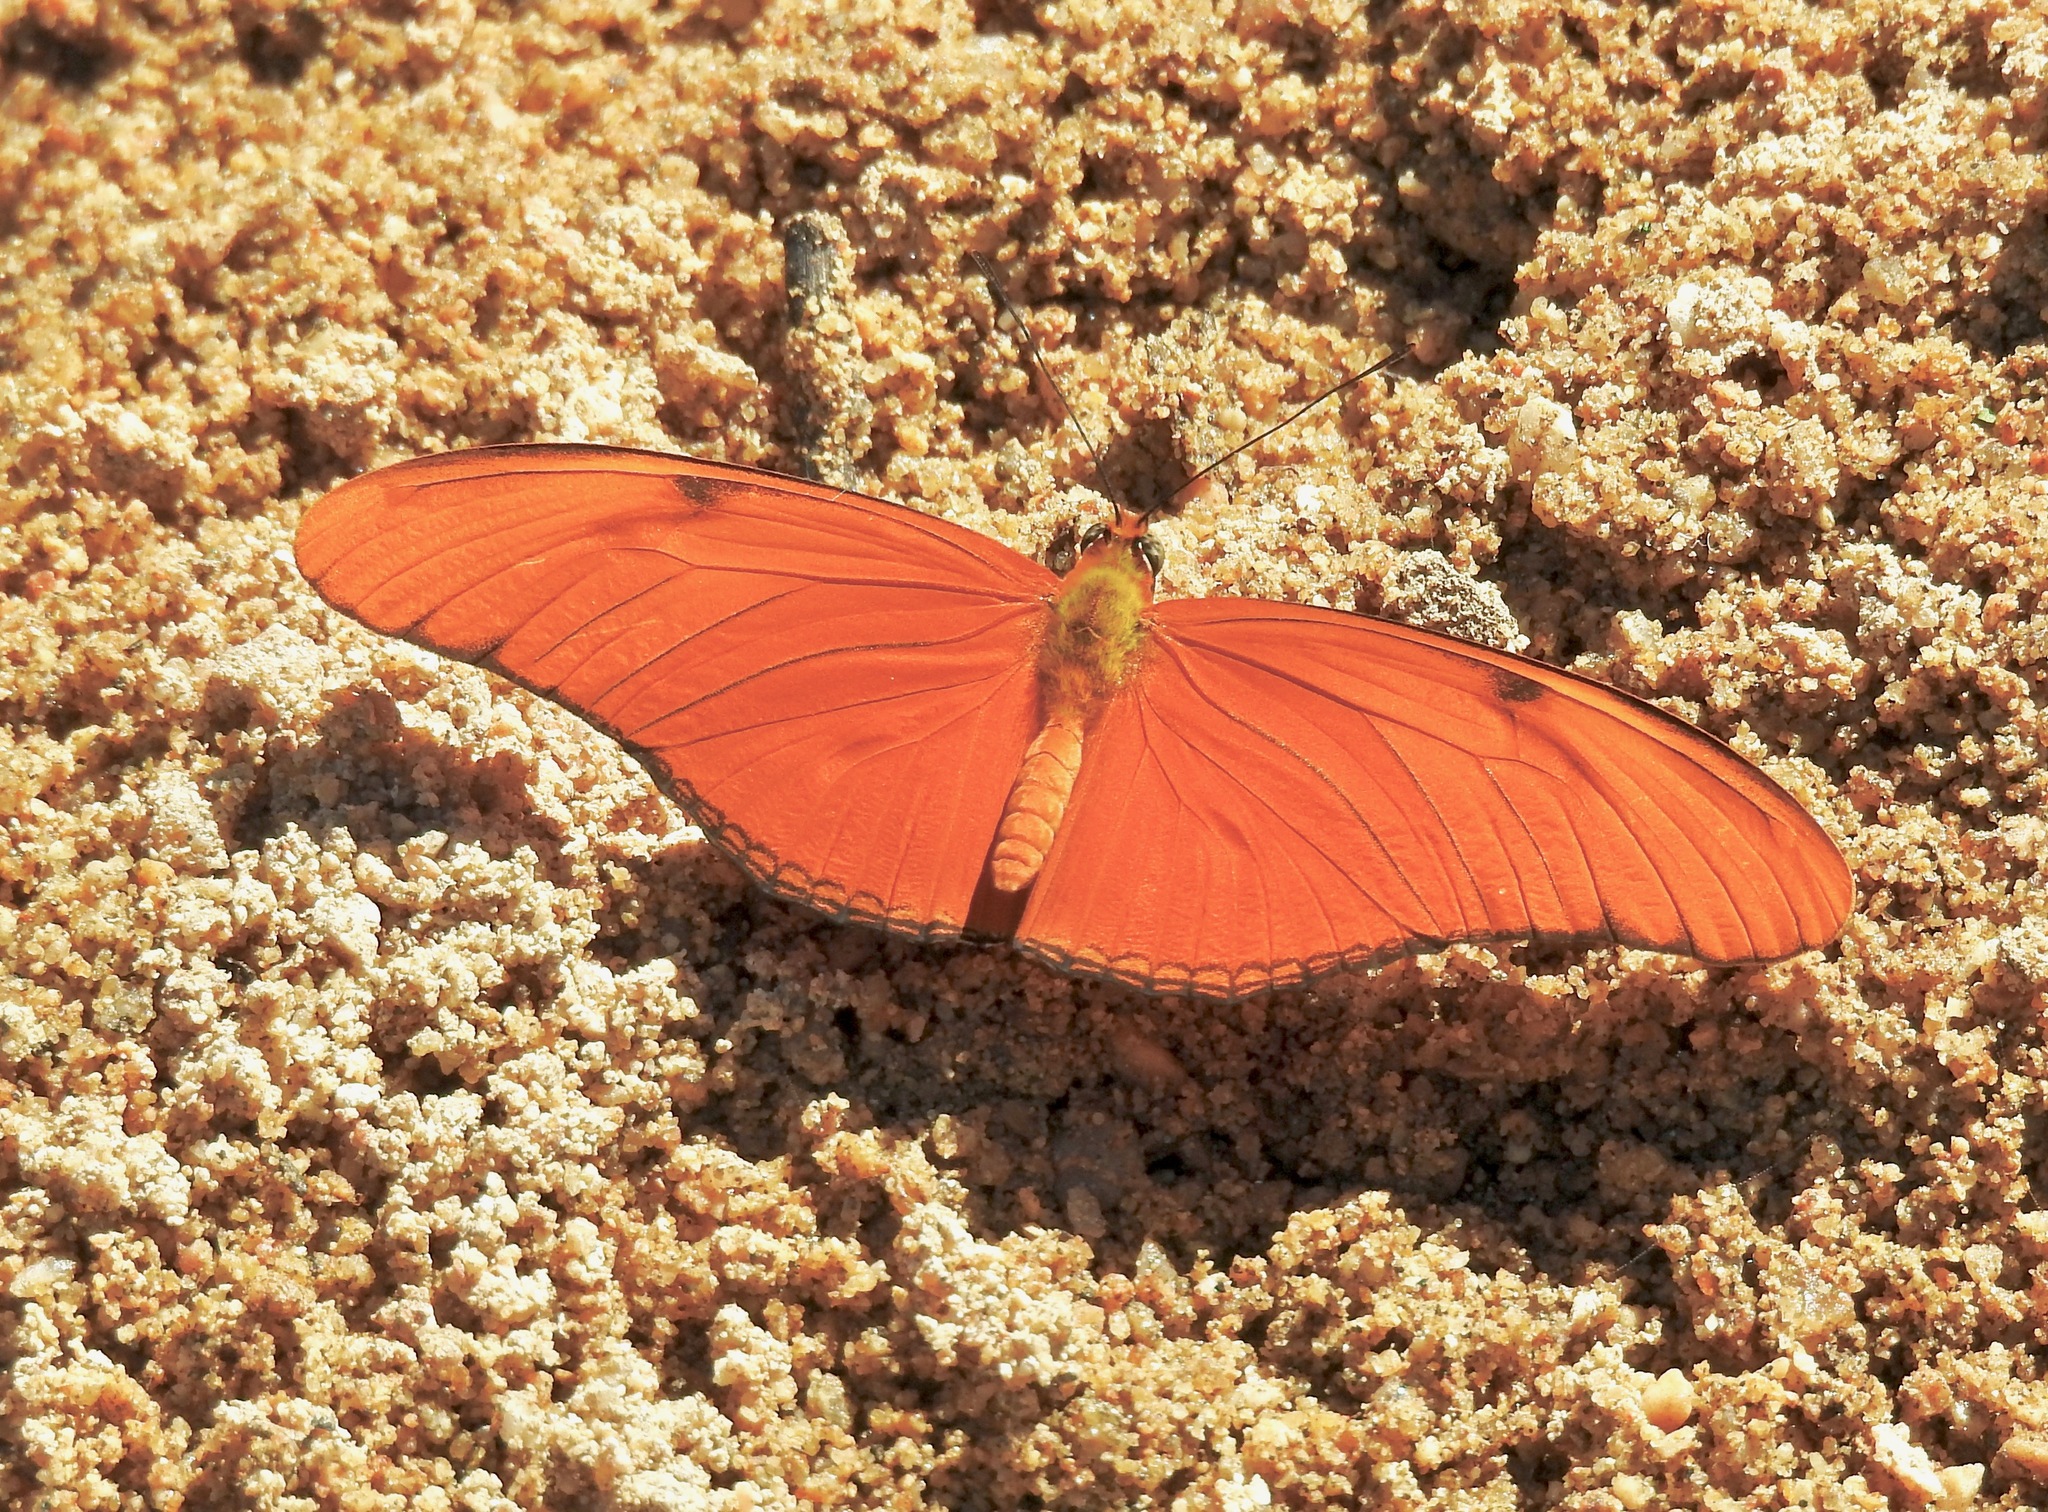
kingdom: Animalia
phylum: Arthropoda
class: Insecta
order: Lepidoptera
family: Nymphalidae
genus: Dryas
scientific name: Dryas iulia
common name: Flambeau
